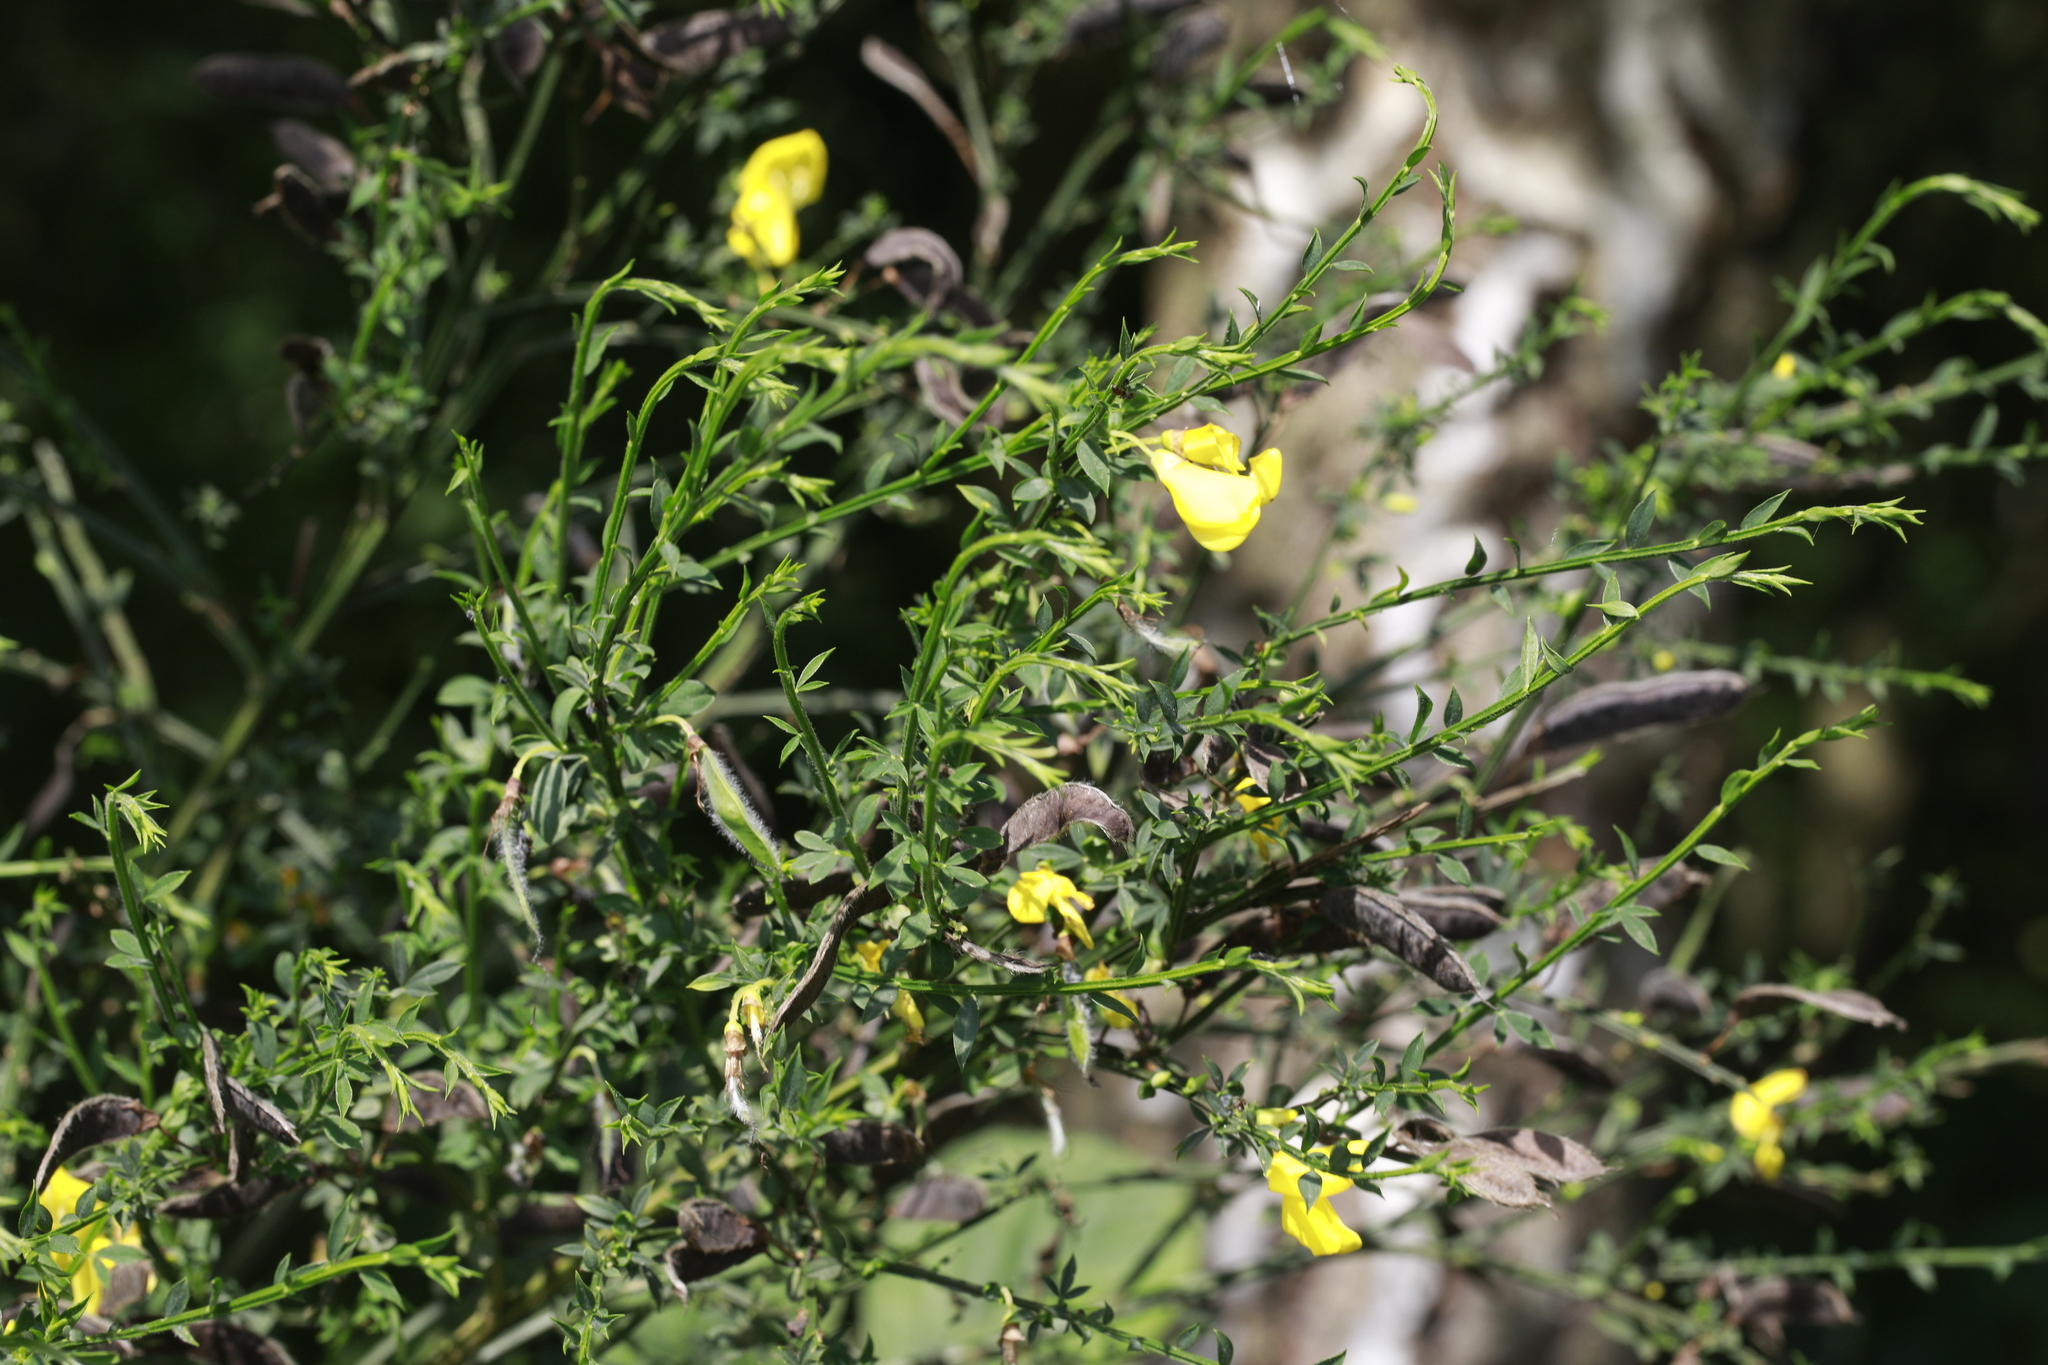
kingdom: Plantae
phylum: Tracheophyta
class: Magnoliopsida
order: Fabales
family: Fabaceae
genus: Cytisus
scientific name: Cytisus scoparius
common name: Scotch broom
